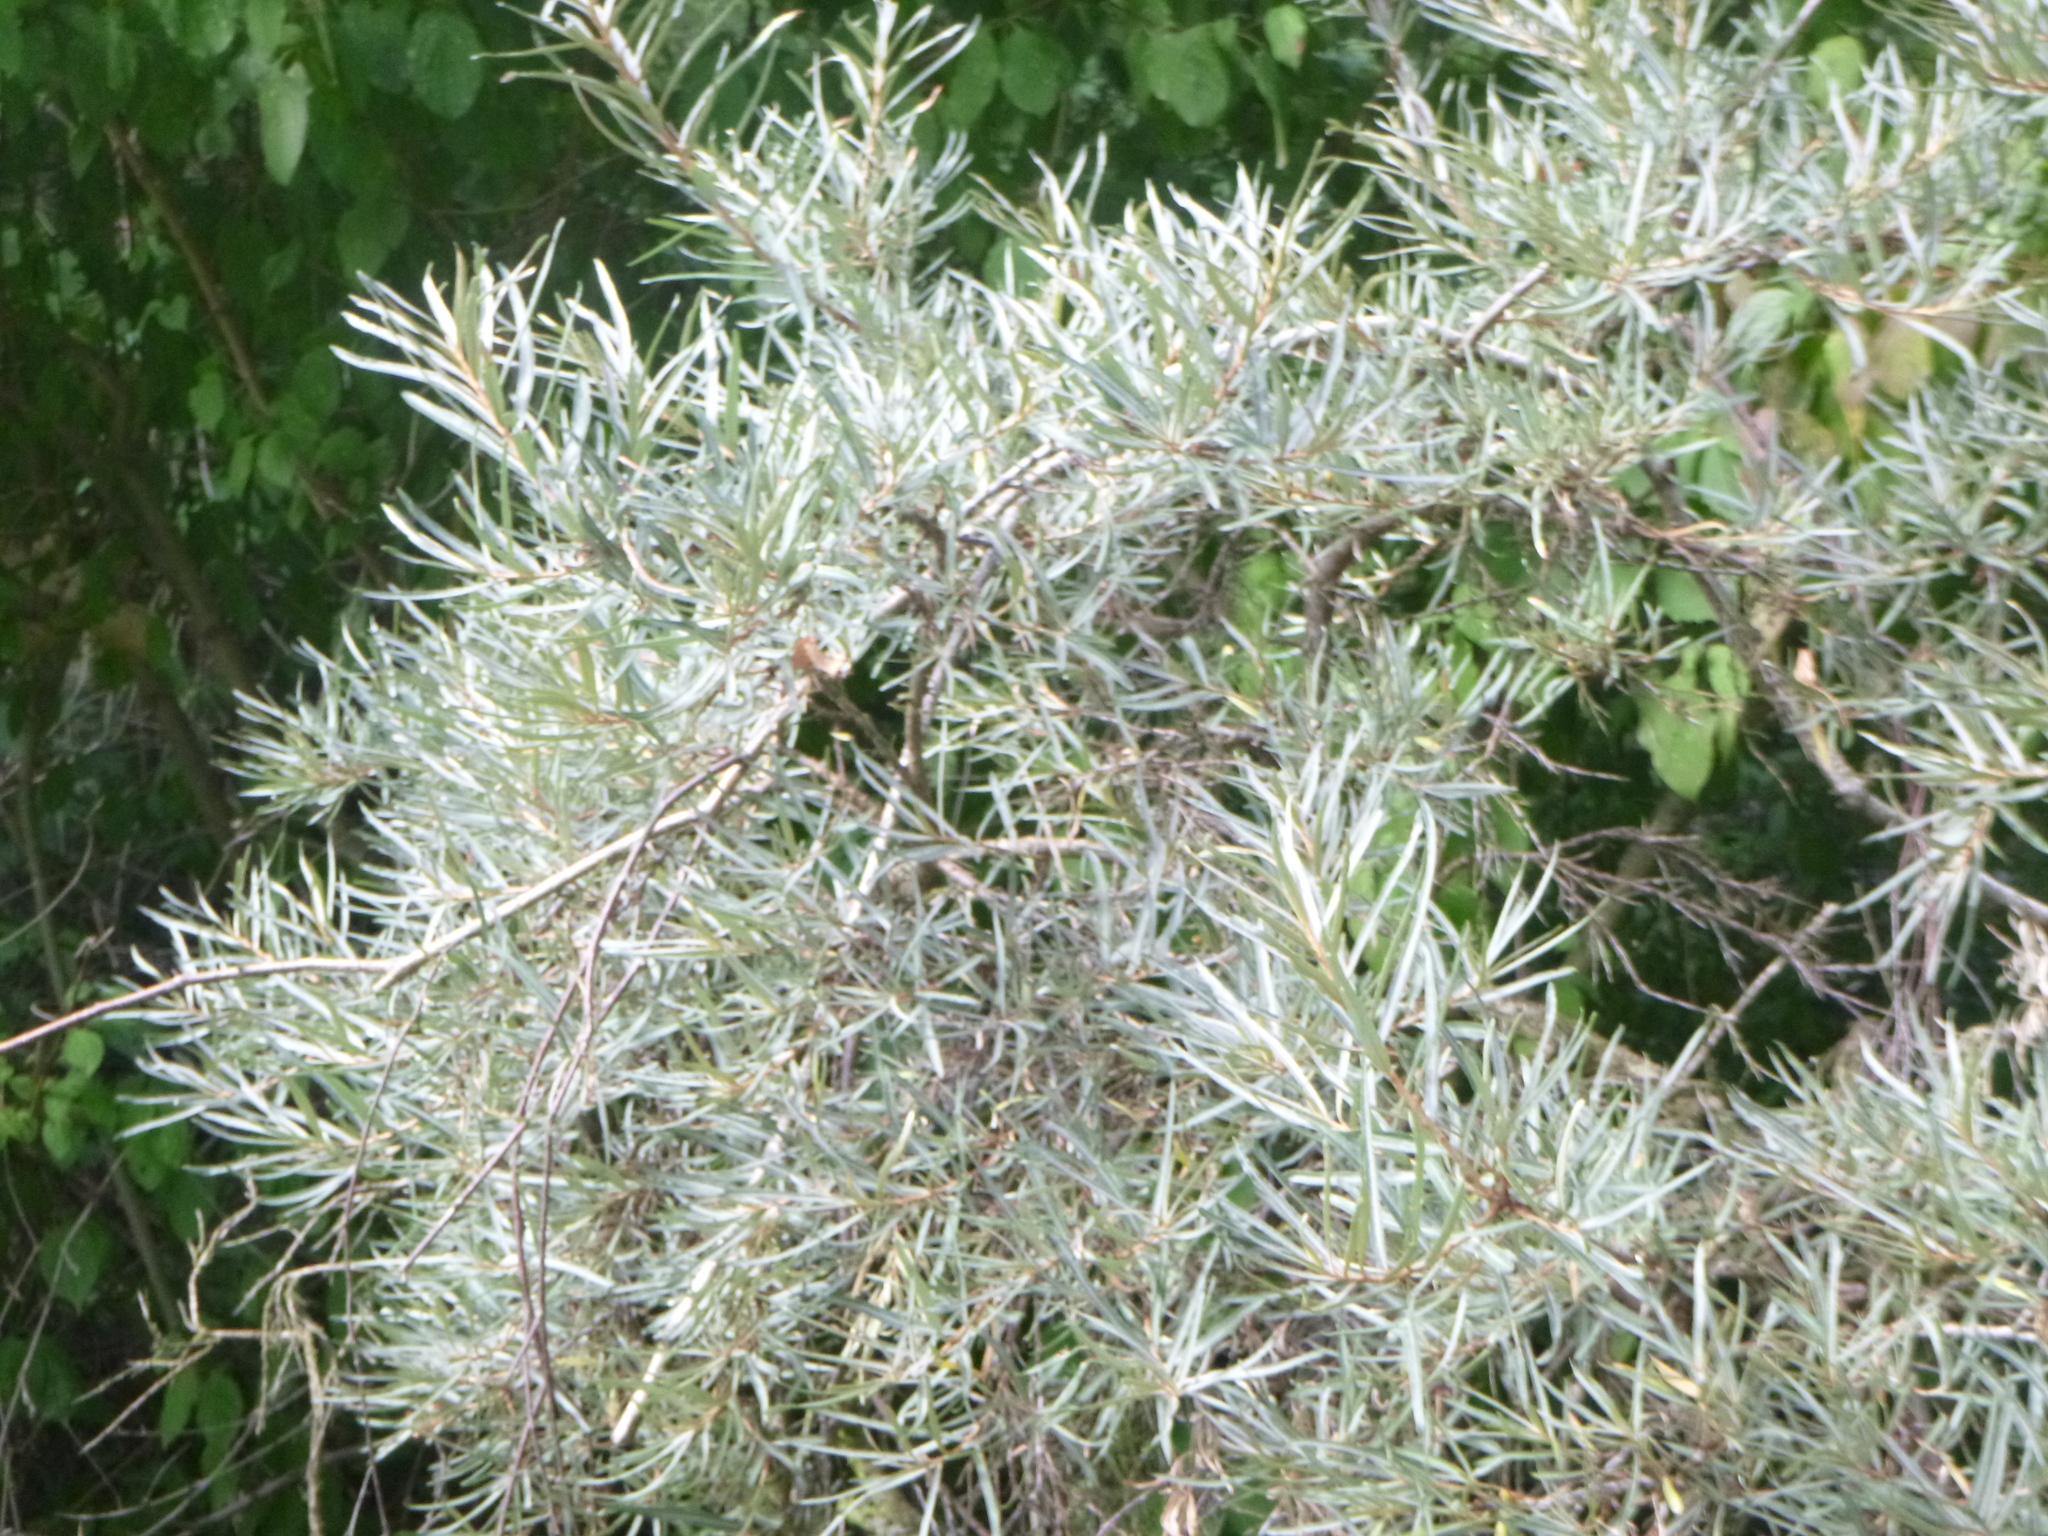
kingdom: Plantae
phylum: Tracheophyta
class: Magnoliopsida
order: Rosales
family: Elaeagnaceae
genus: Hippophae
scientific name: Hippophae rhamnoides
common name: Sea-buckthorn
